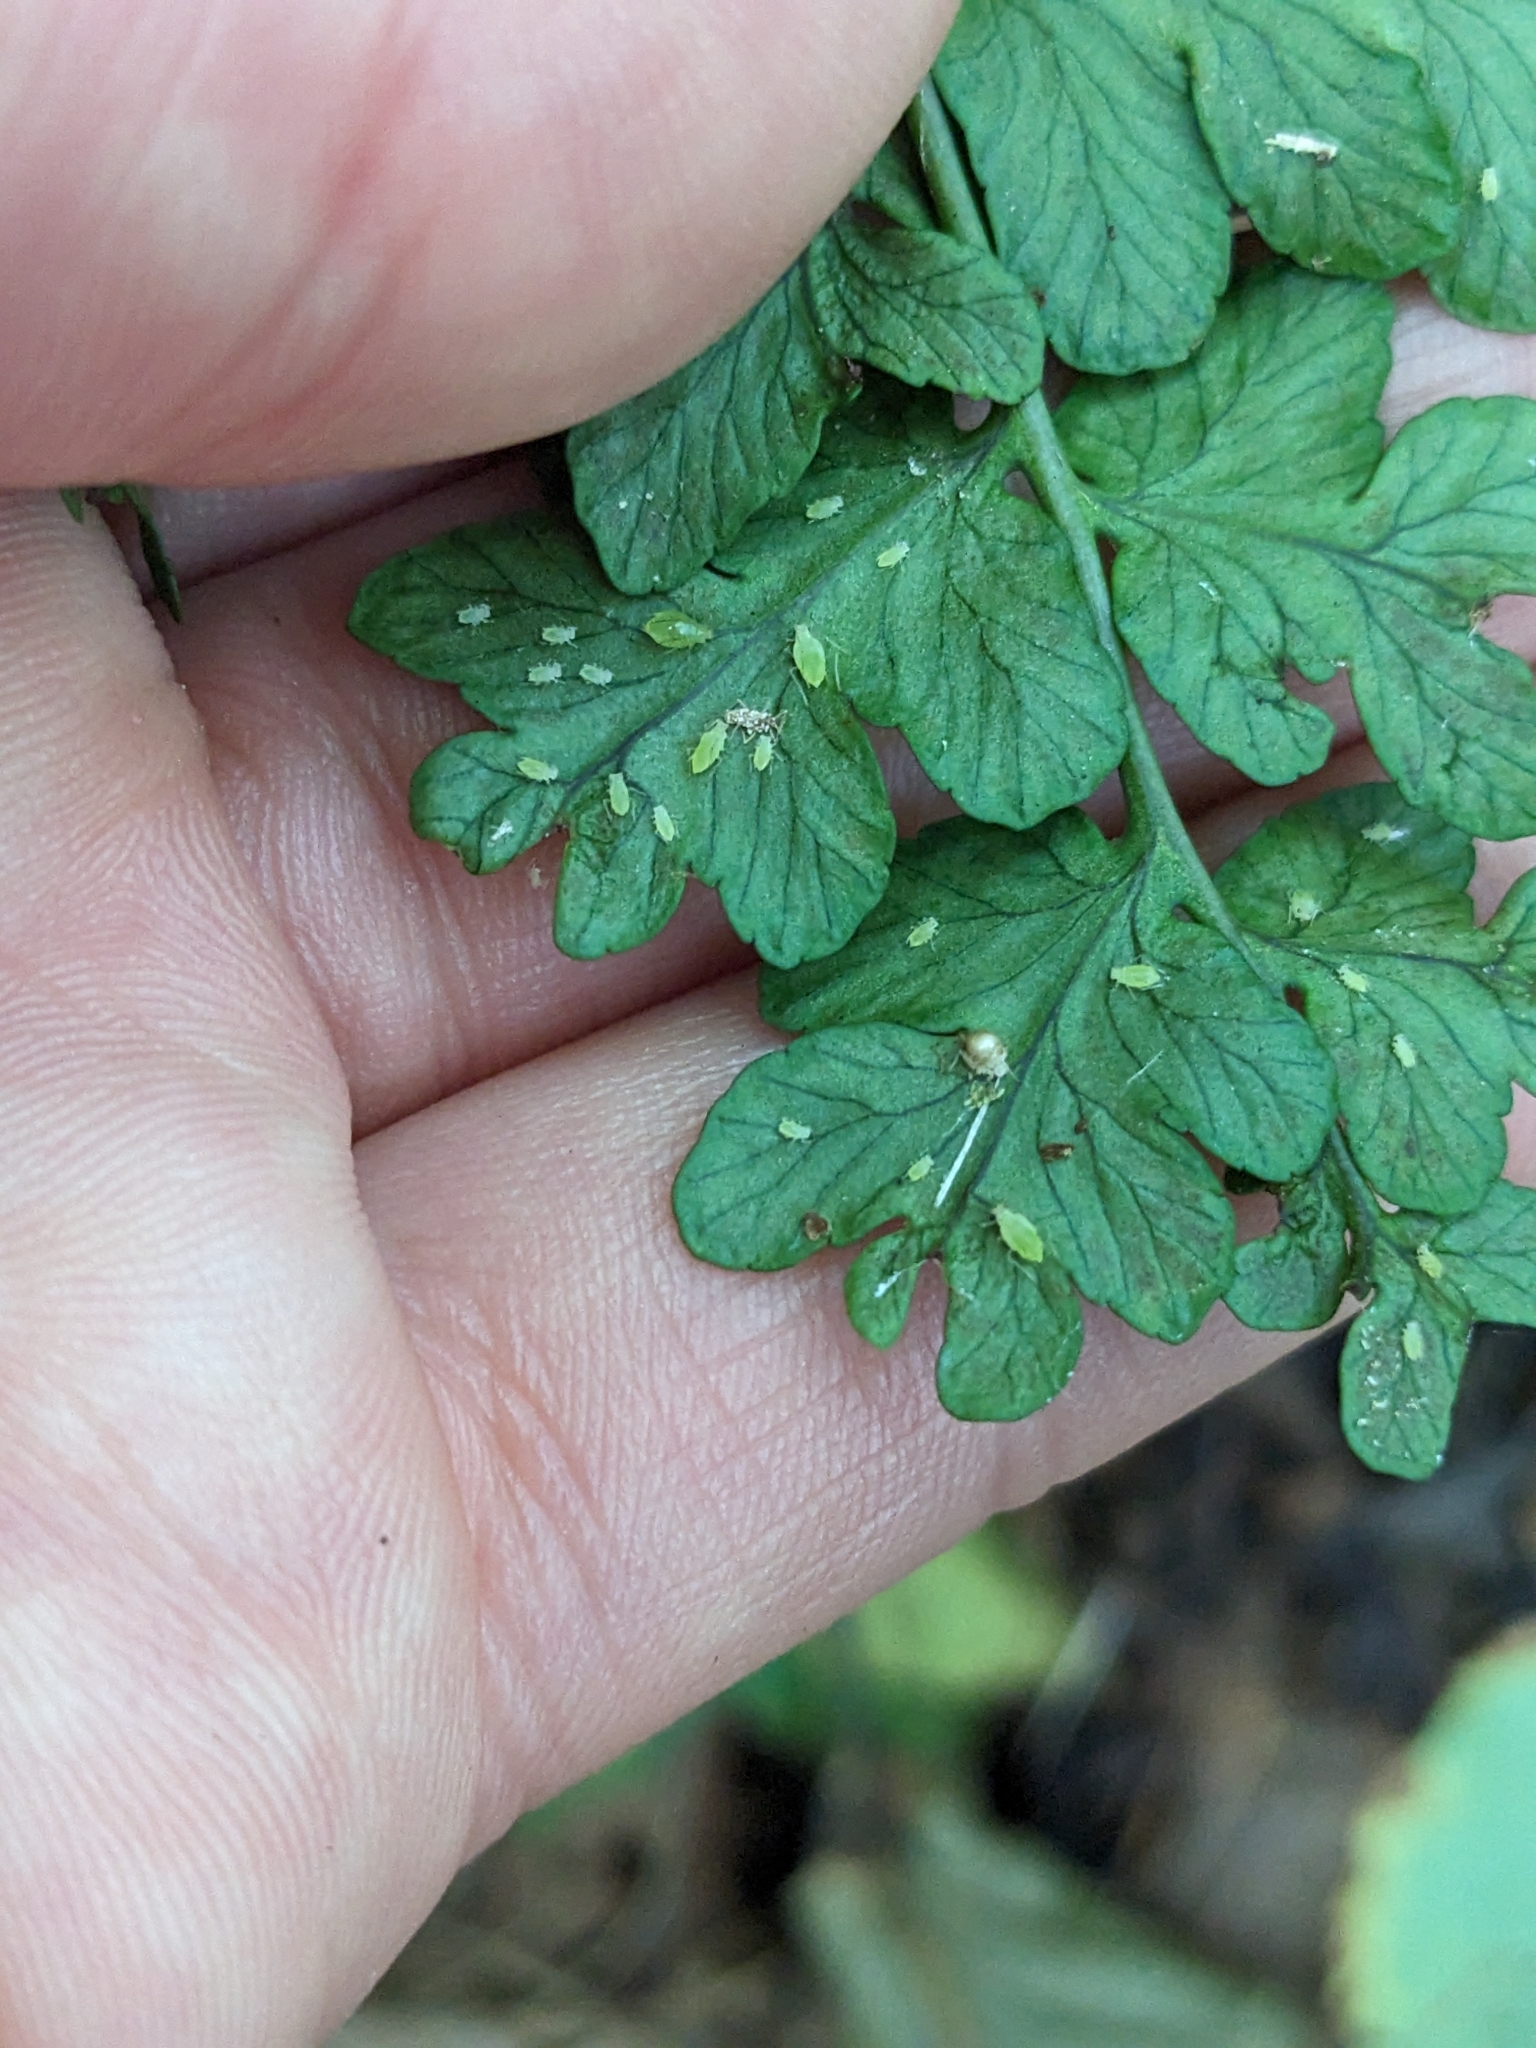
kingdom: Plantae
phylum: Tracheophyta
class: Polypodiopsida
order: Polypodiales
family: Dryopteridaceae
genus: Dryopteris
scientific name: Dryopteris marginalis
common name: Marginal wood fern
